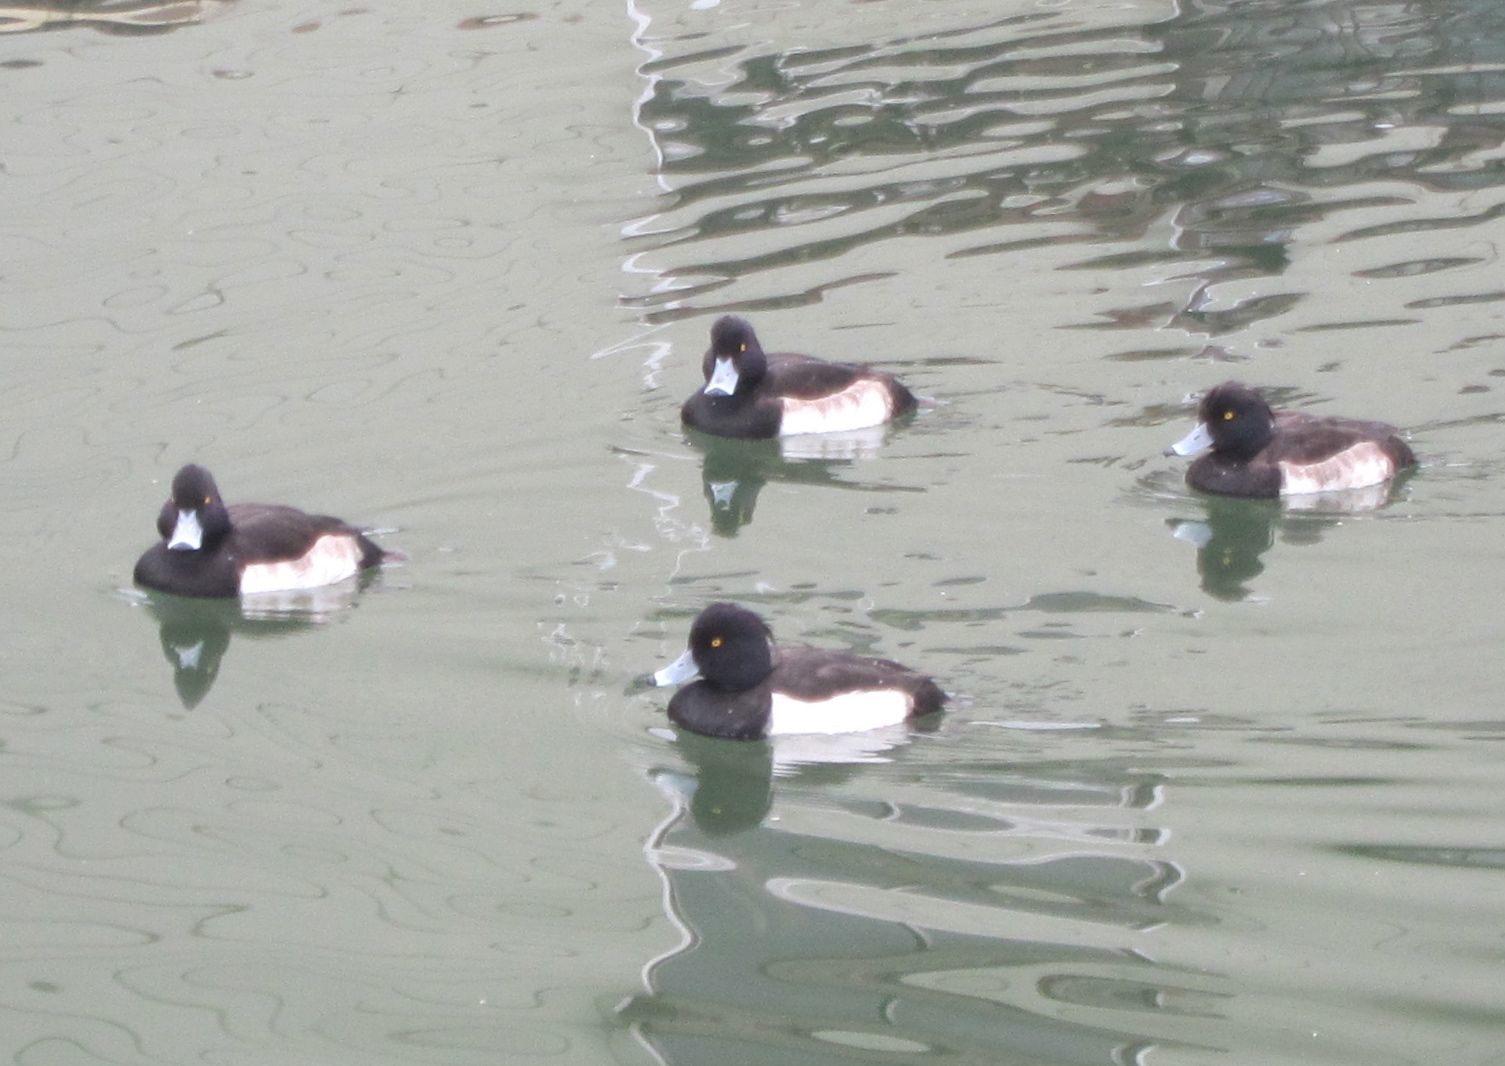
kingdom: Animalia
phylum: Chordata
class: Aves
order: Anseriformes
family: Anatidae
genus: Aythya
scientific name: Aythya fuligula
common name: Tufted duck
